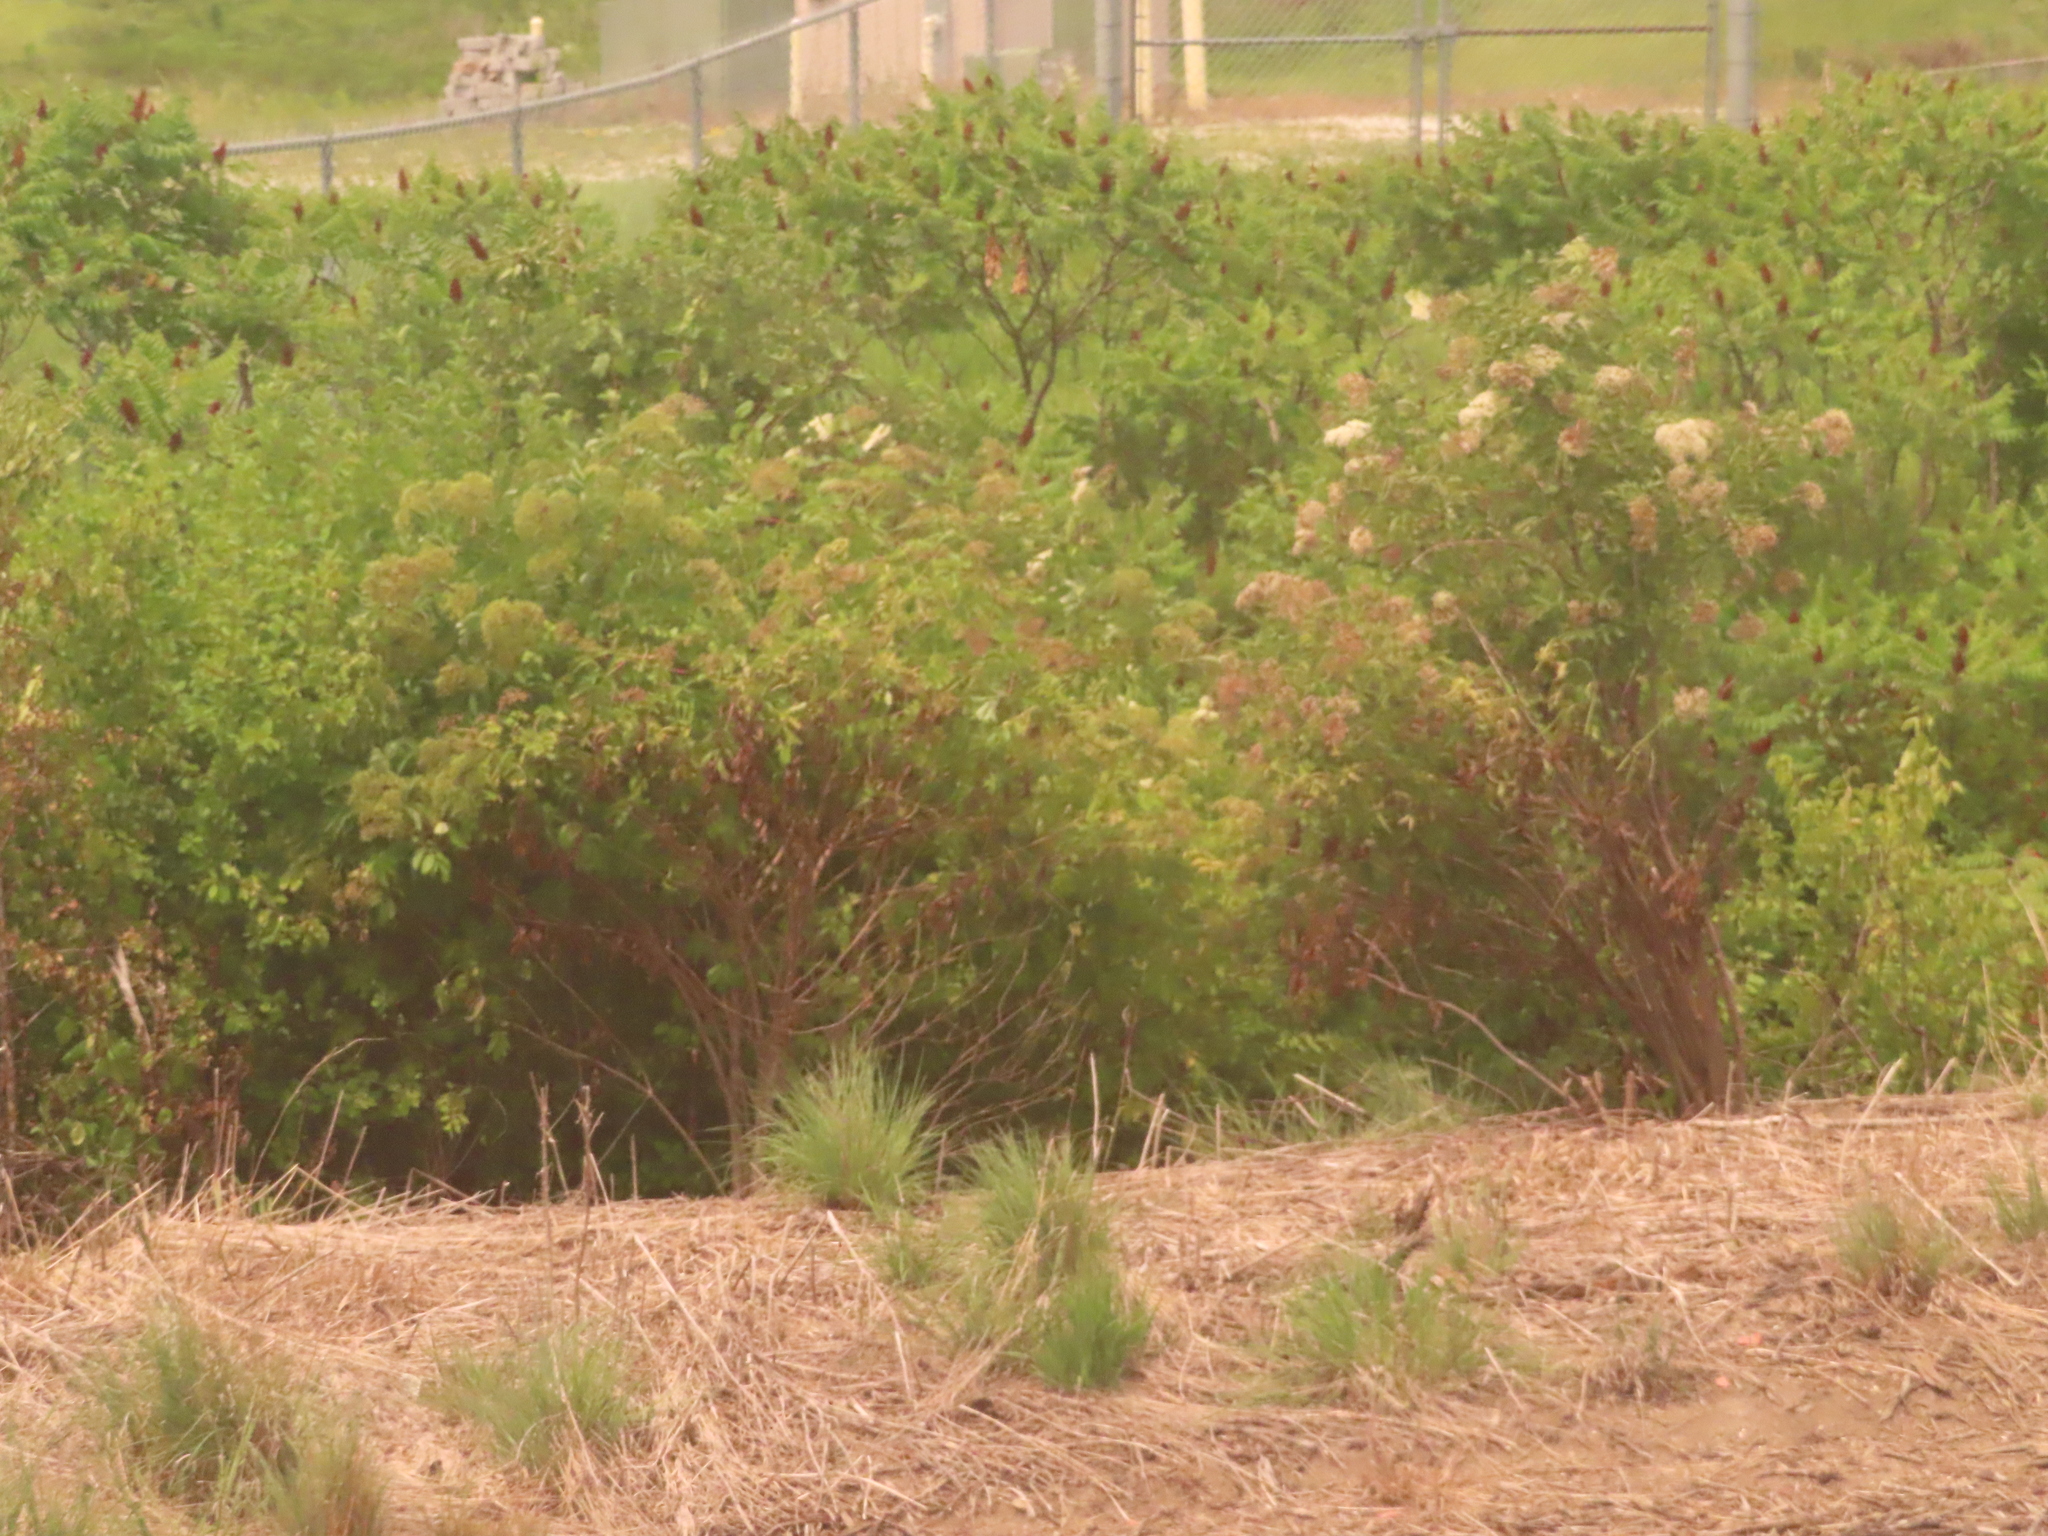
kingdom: Plantae
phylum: Tracheophyta
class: Magnoliopsida
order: Dipsacales
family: Viburnaceae
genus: Sambucus
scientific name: Sambucus canadensis
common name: American elder
